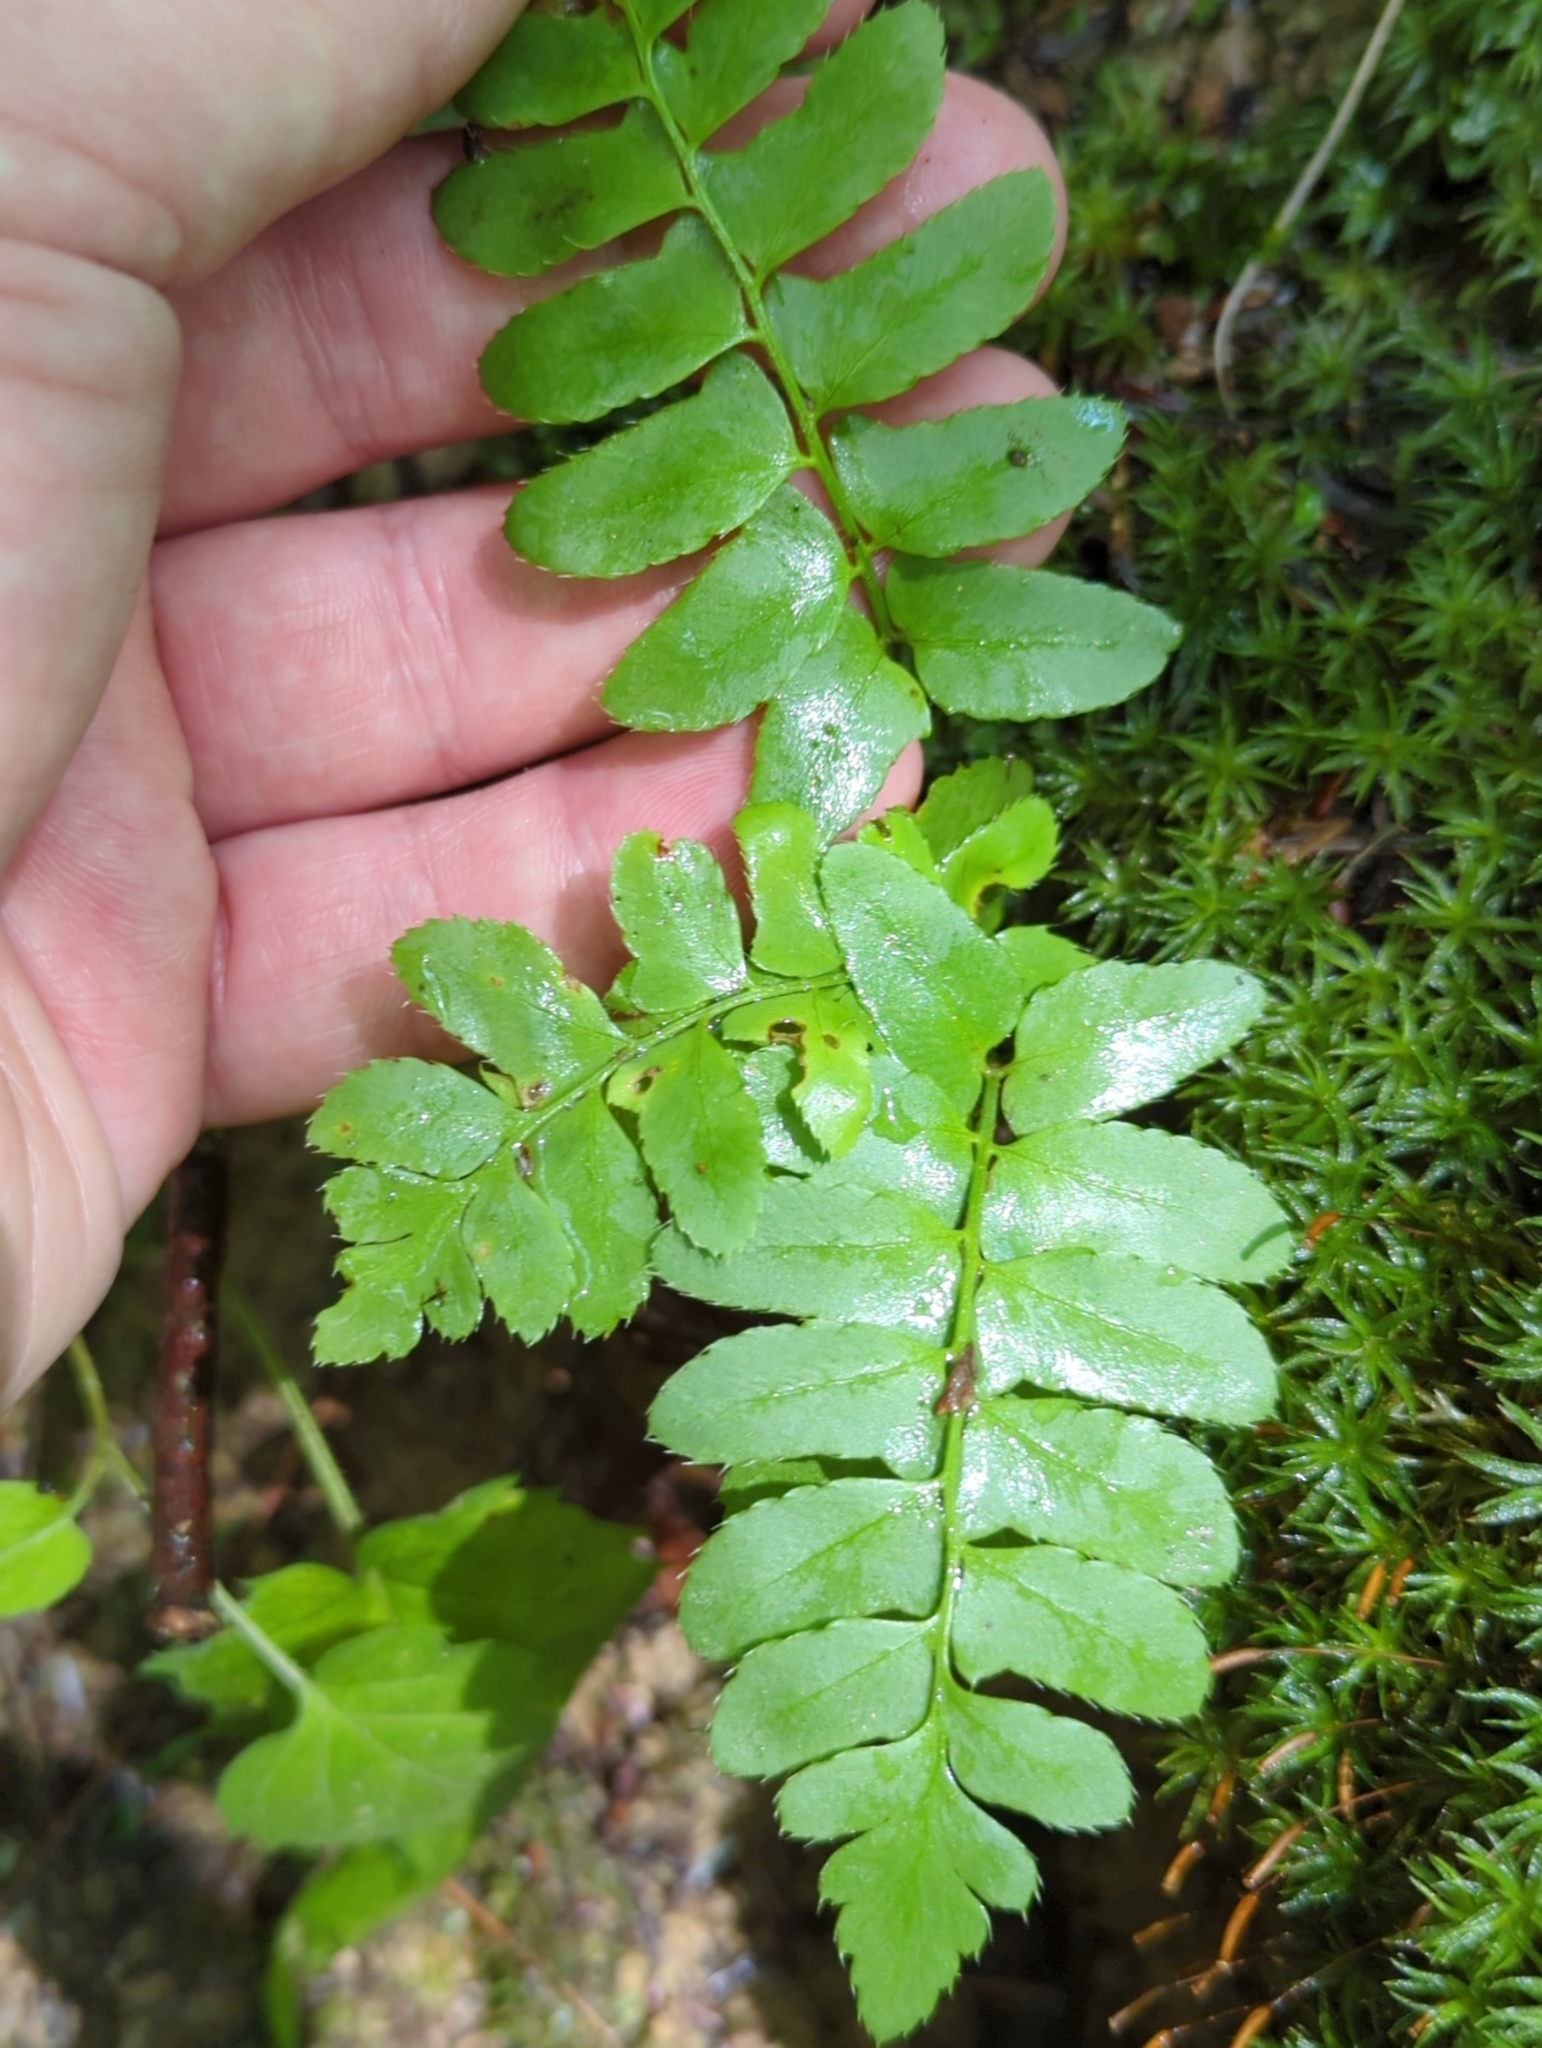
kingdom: Plantae
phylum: Tracheophyta
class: Polypodiopsida
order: Polypodiales
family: Dryopteridaceae
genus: Polystichum
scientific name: Polystichum acrostichoides
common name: Christmas fern
